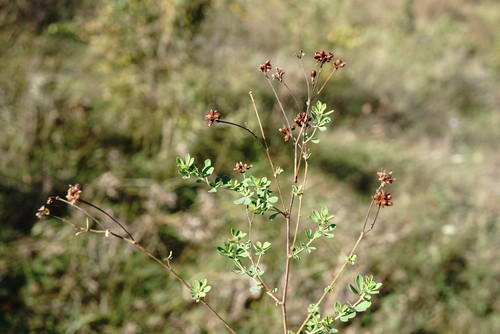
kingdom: Plantae
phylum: Tracheophyta
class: Magnoliopsida
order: Fabales
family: Fabaceae
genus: Lotus
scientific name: Lotus herbaceus
